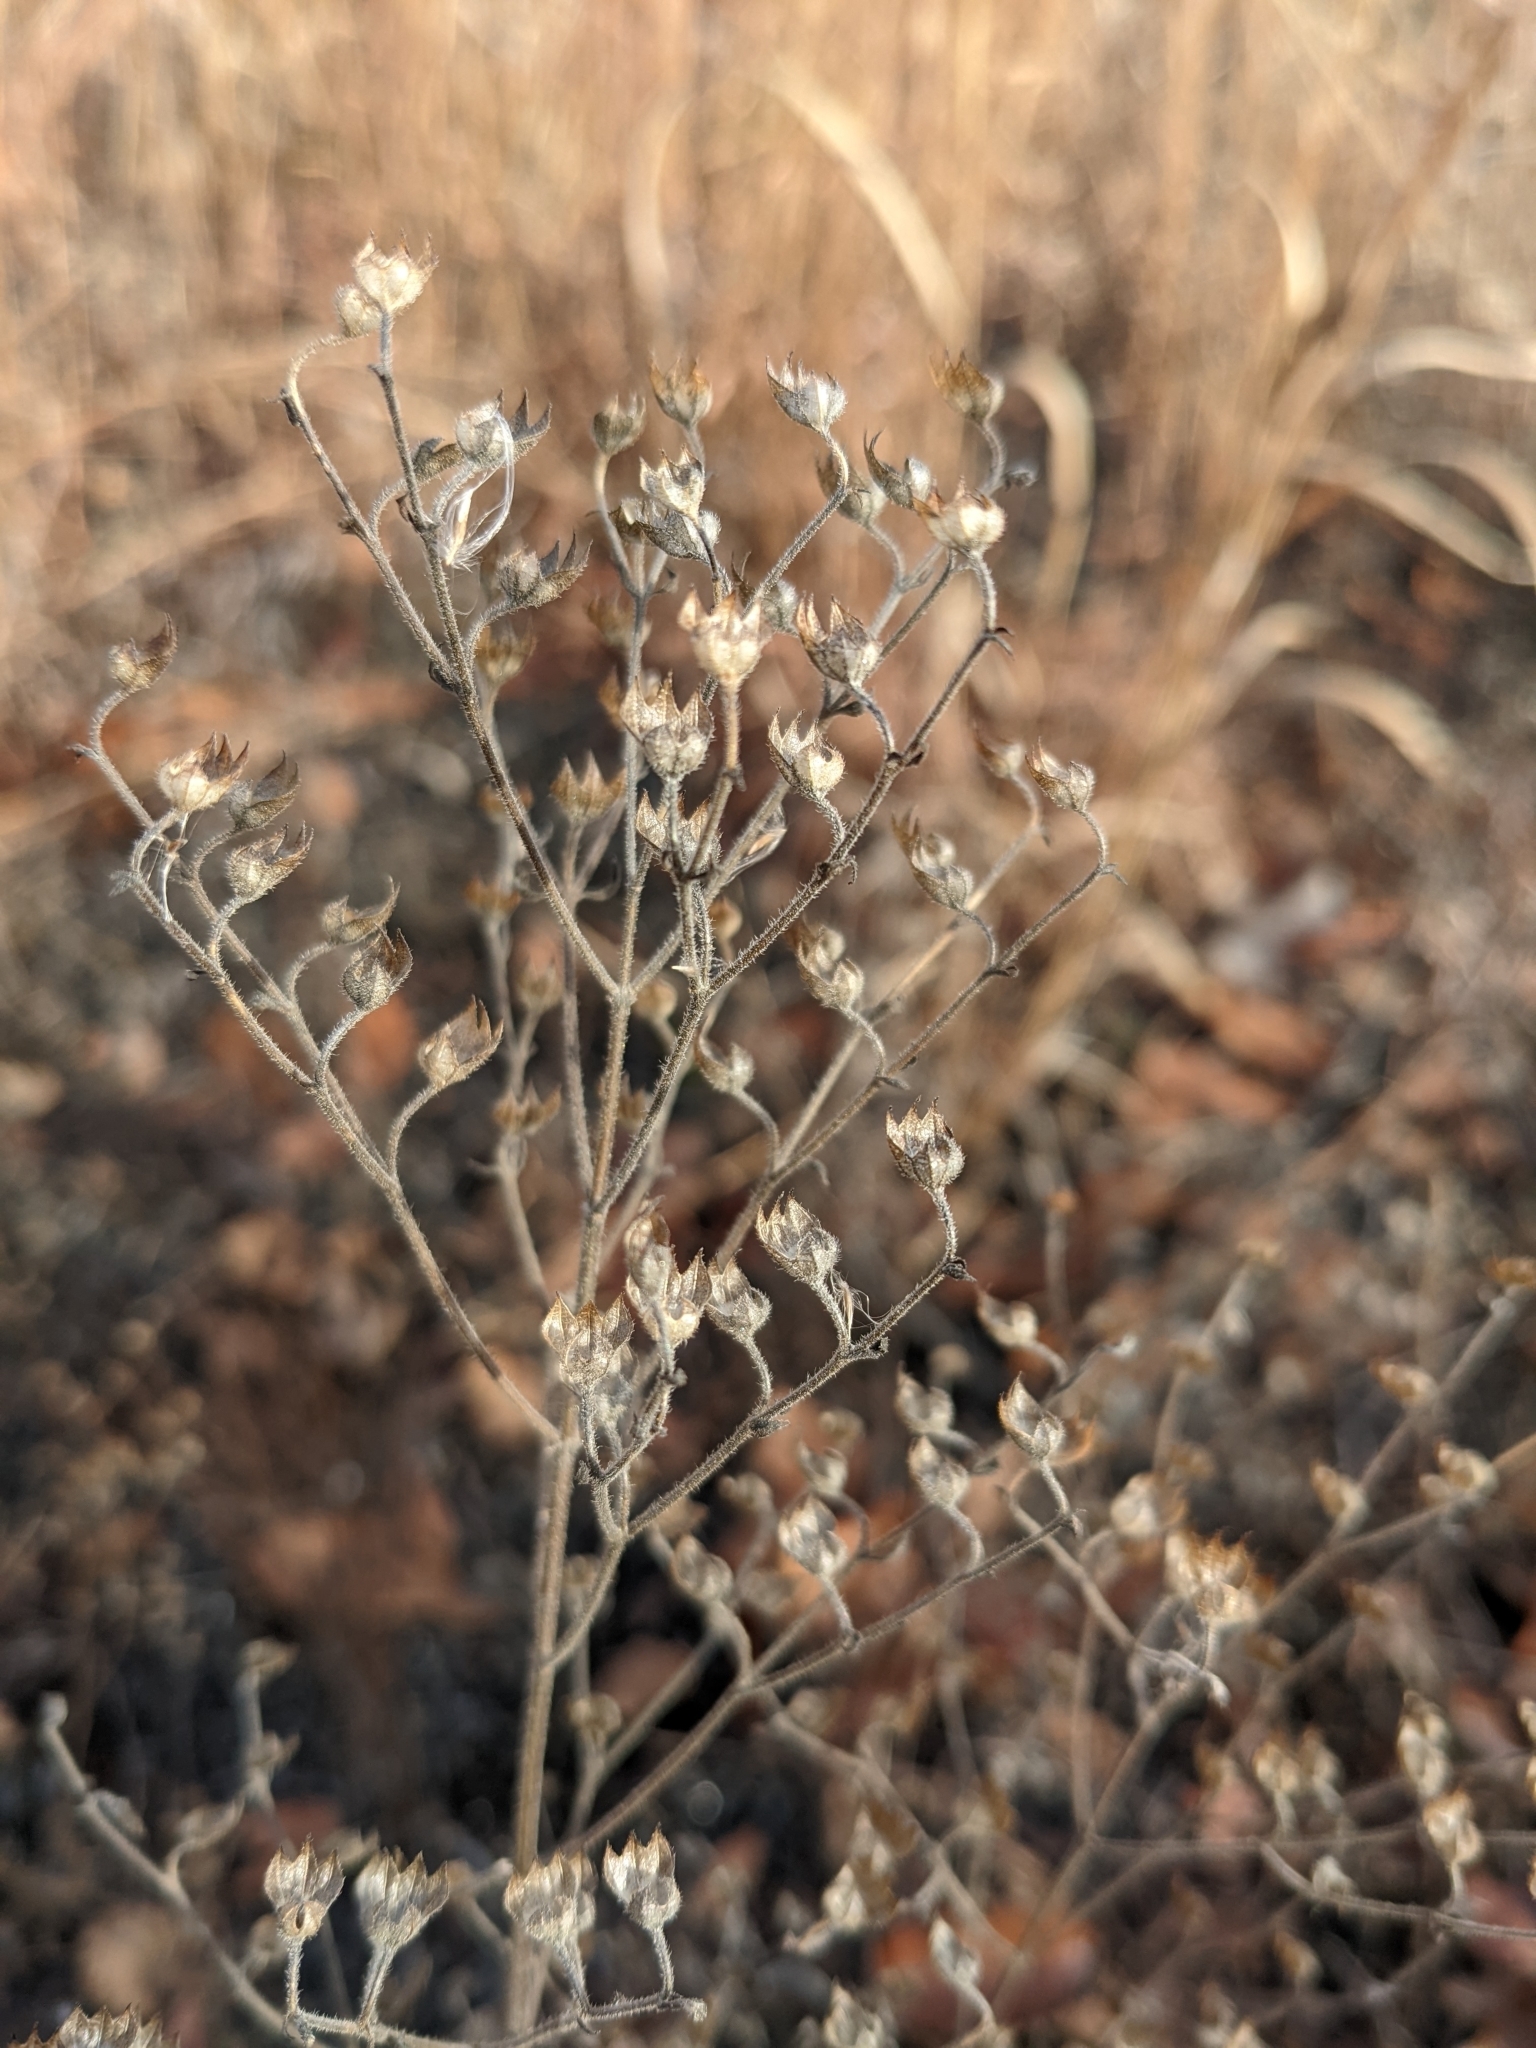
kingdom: Plantae
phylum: Tracheophyta
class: Magnoliopsida
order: Lamiales
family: Lamiaceae
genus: Trichostema
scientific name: Trichostema dichotomum
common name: Bastard pennyroyal
